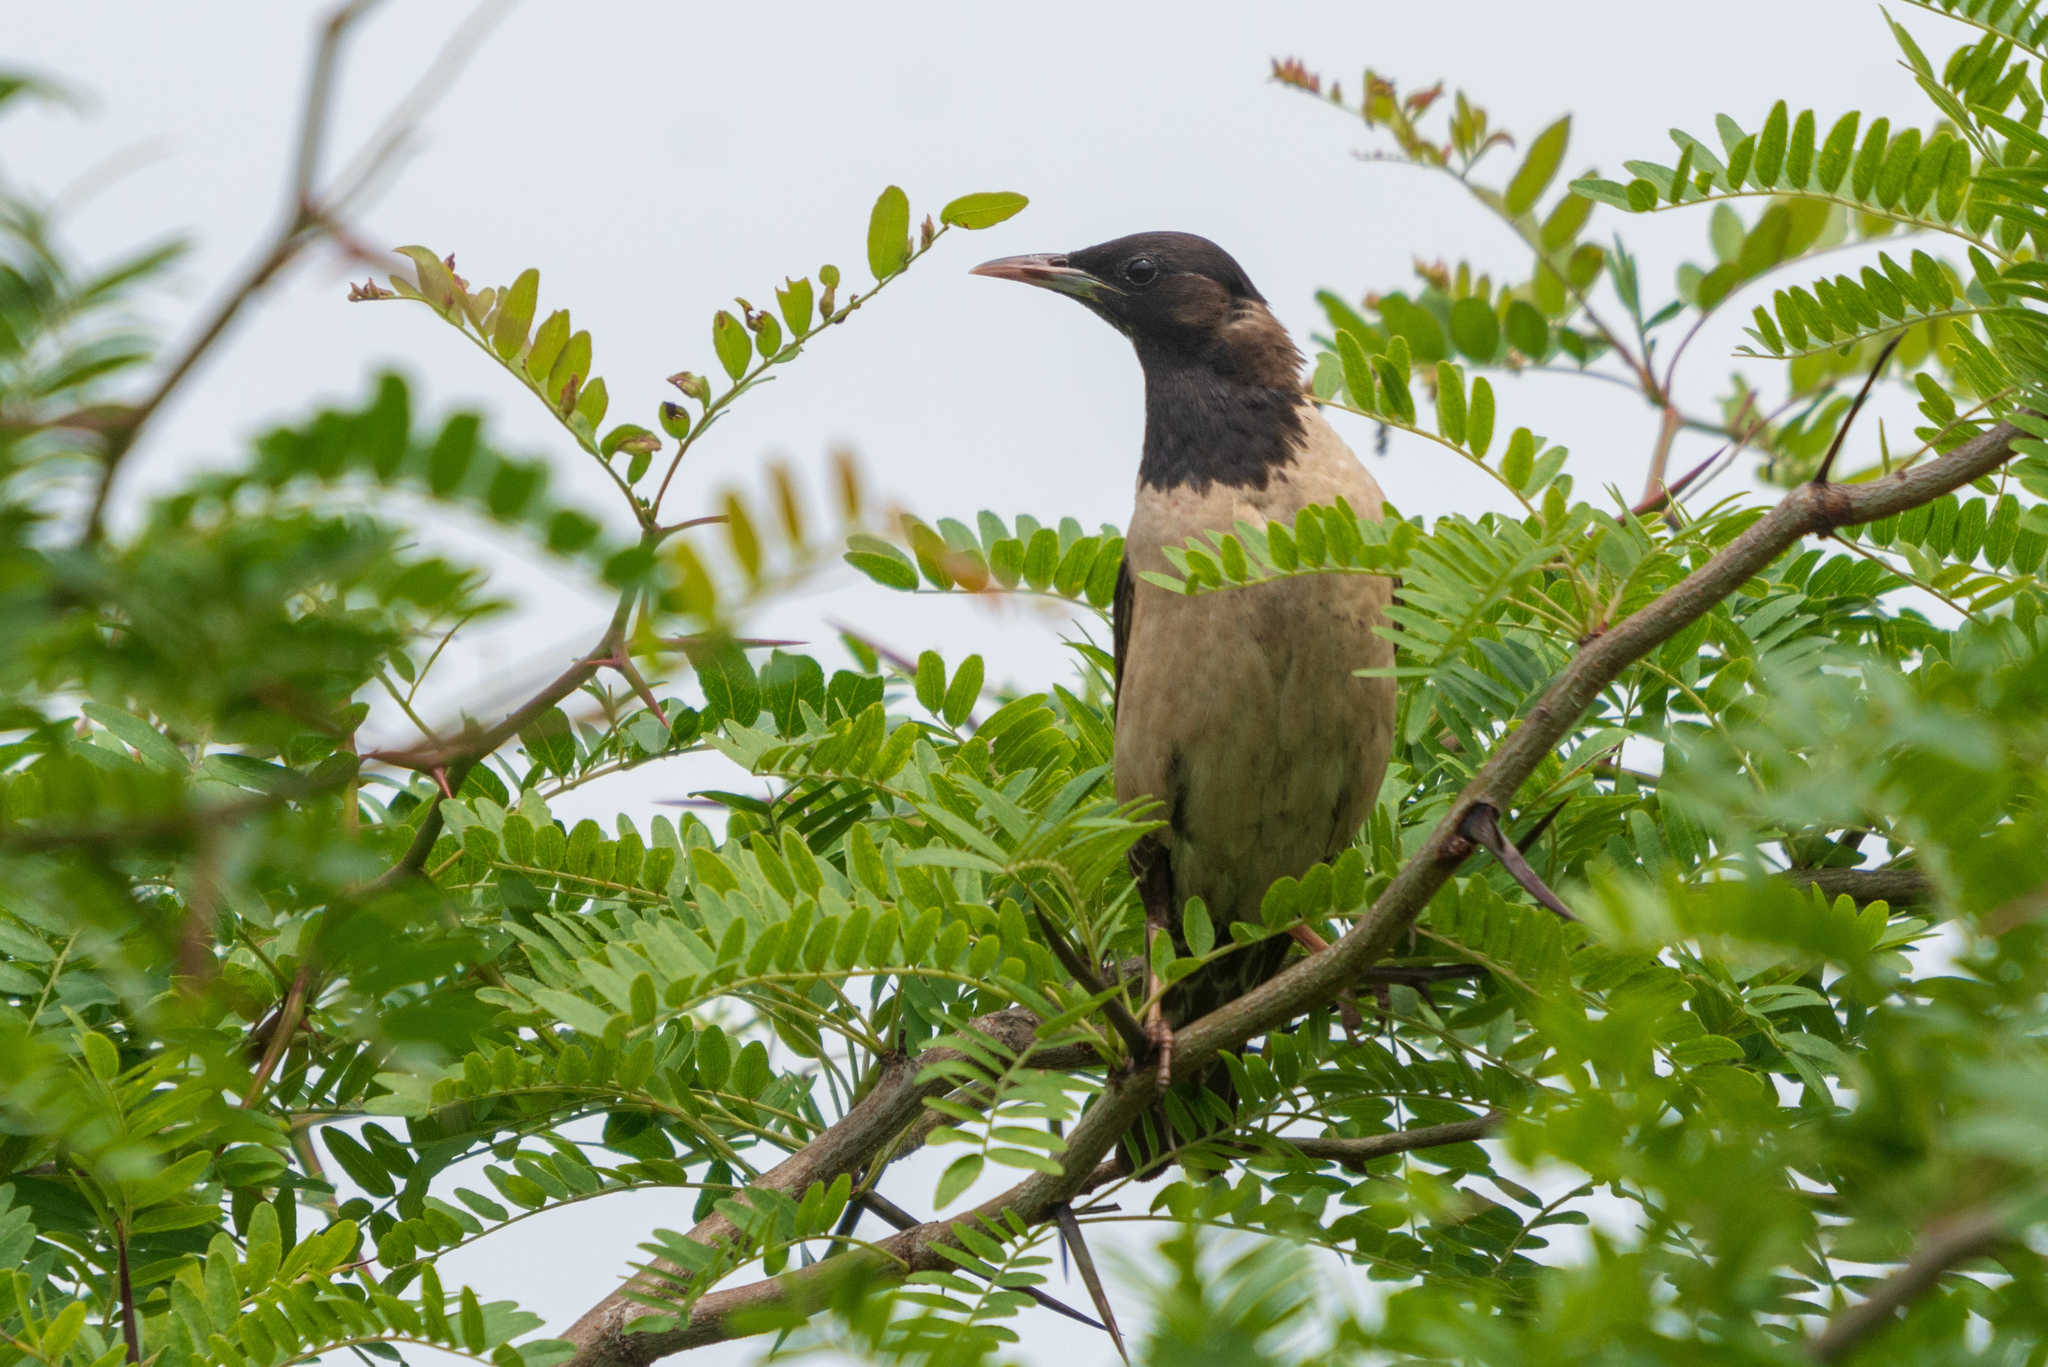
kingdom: Animalia
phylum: Chordata
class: Aves
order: Passeriformes
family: Sturnidae
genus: Pastor
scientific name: Pastor roseus
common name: Rosy starling
